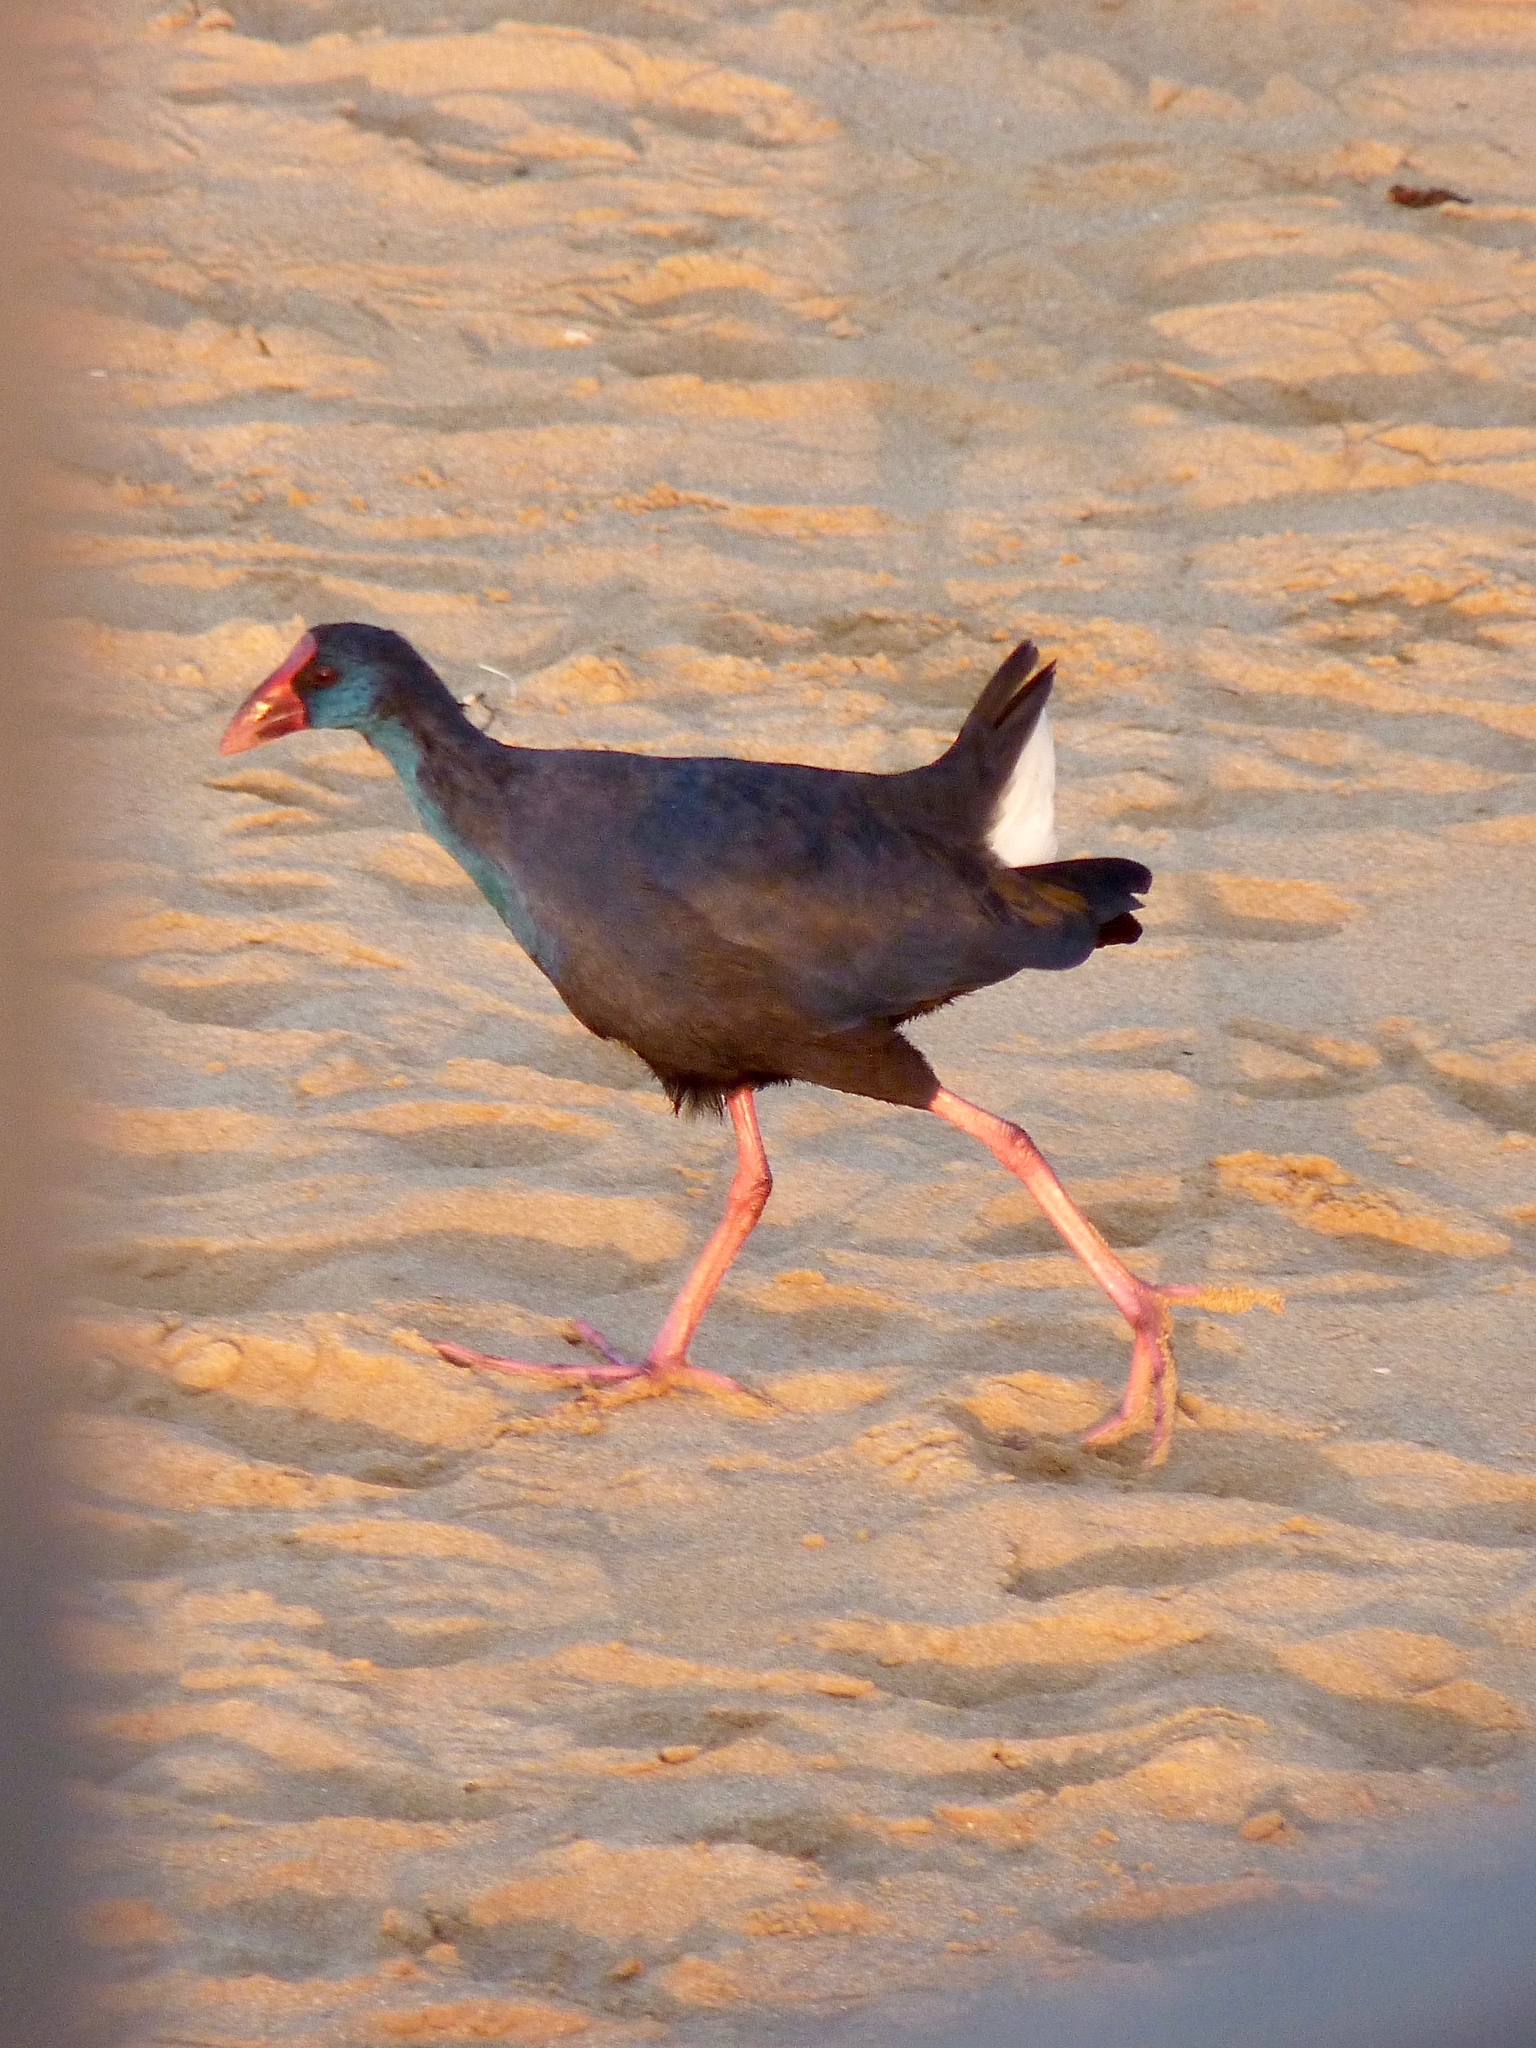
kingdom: Animalia
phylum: Chordata
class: Aves
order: Gruiformes
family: Rallidae
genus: Porphyrio
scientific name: Porphyrio porphyrio
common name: Purple swamphen
